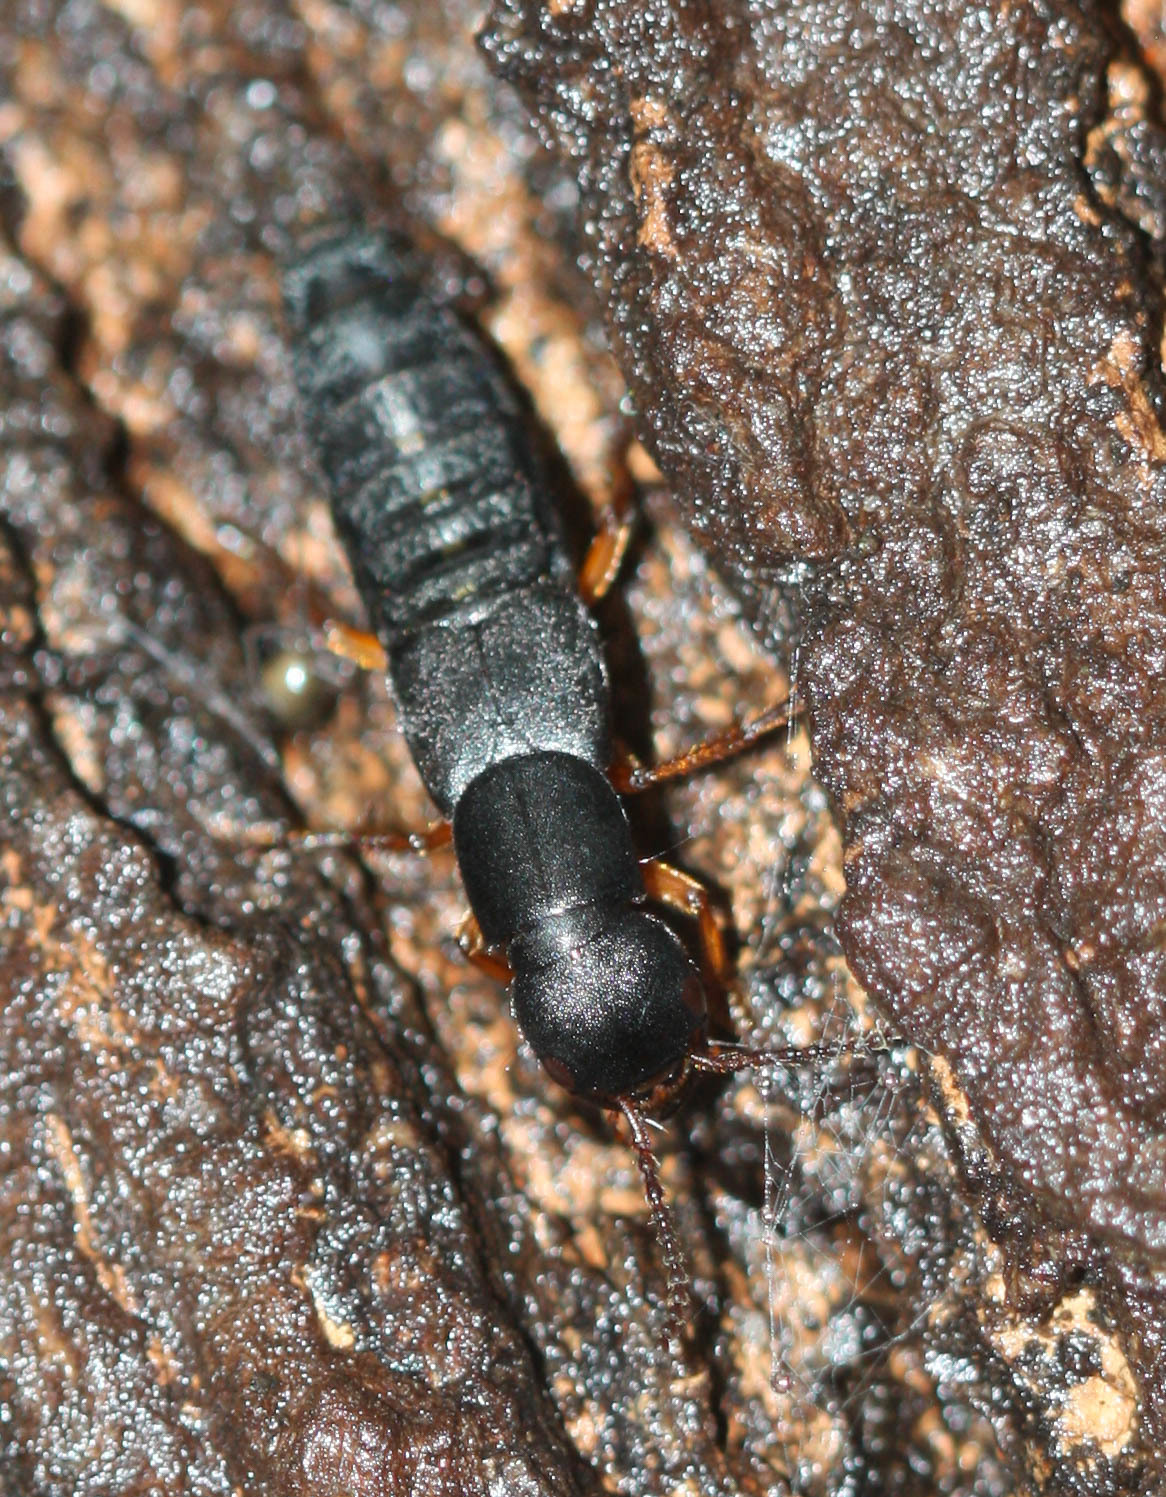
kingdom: Animalia
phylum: Arthropoda
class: Insecta
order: Coleoptera
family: Staphylinidae
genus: Dinothenarus
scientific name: Dinothenarus badipes
